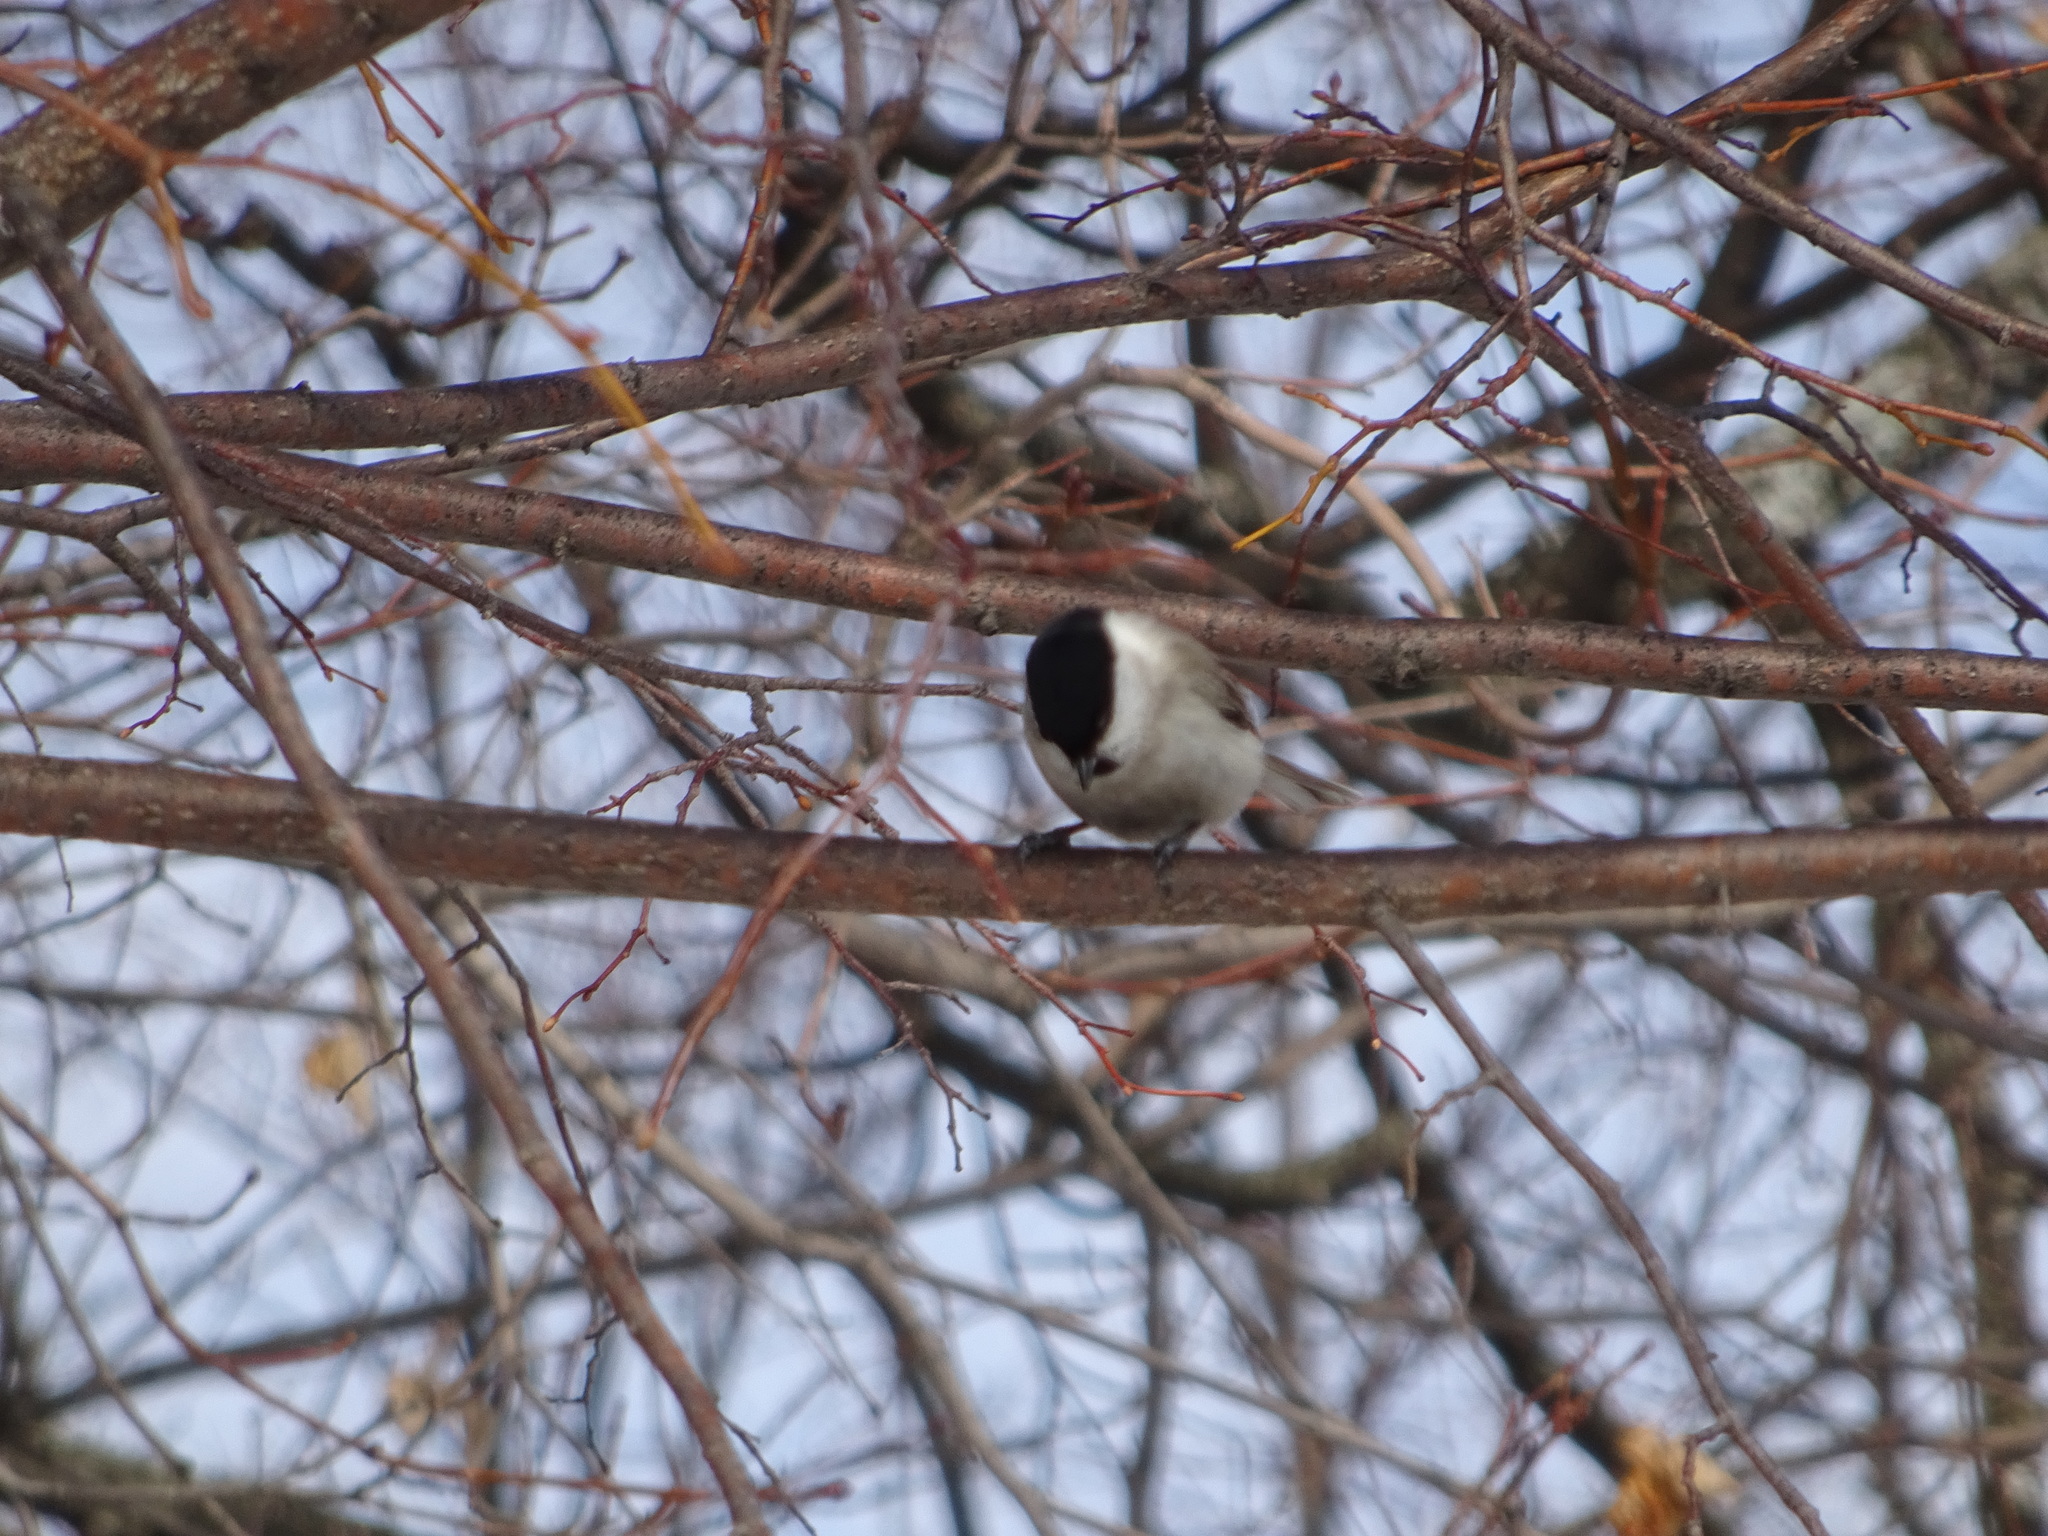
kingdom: Animalia
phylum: Chordata
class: Aves
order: Passeriformes
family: Paridae
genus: Poecile
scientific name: Poecile palustris
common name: Marsh tit
